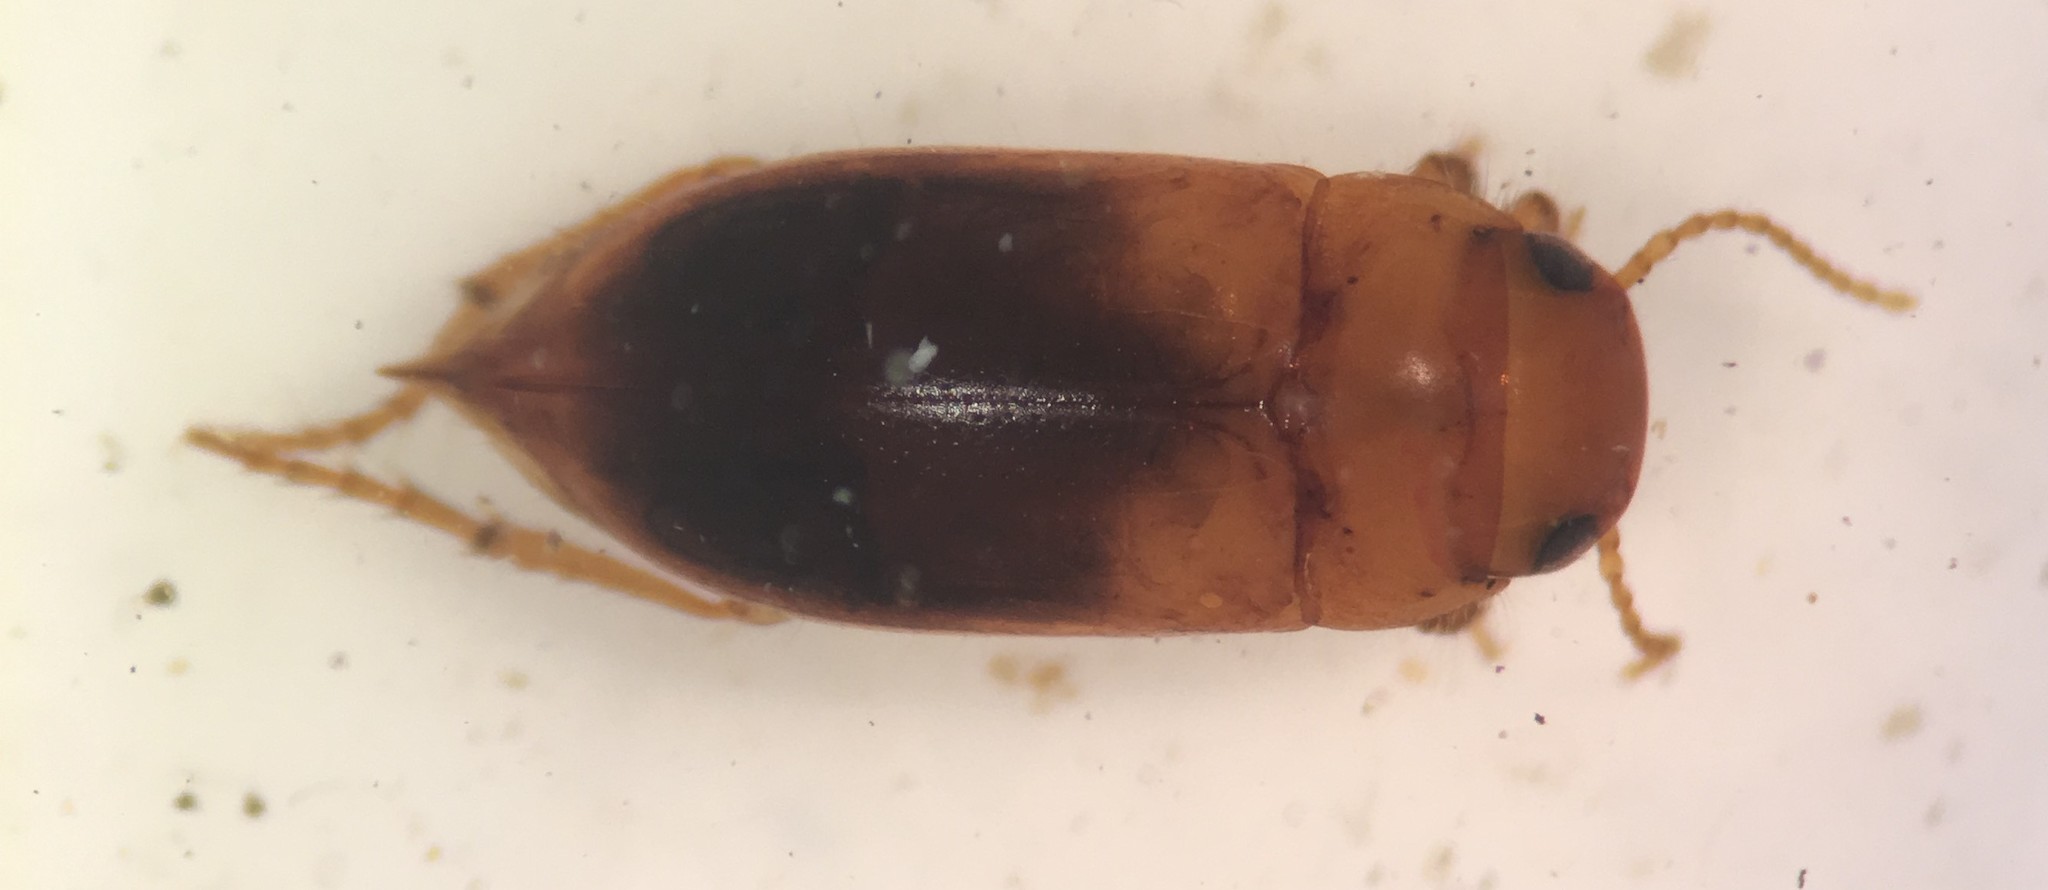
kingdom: Animalia
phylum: Arthropoda
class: Insecta
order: Coleoptera
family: Dytiscidae
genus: Celina
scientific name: Celina hubbelli
